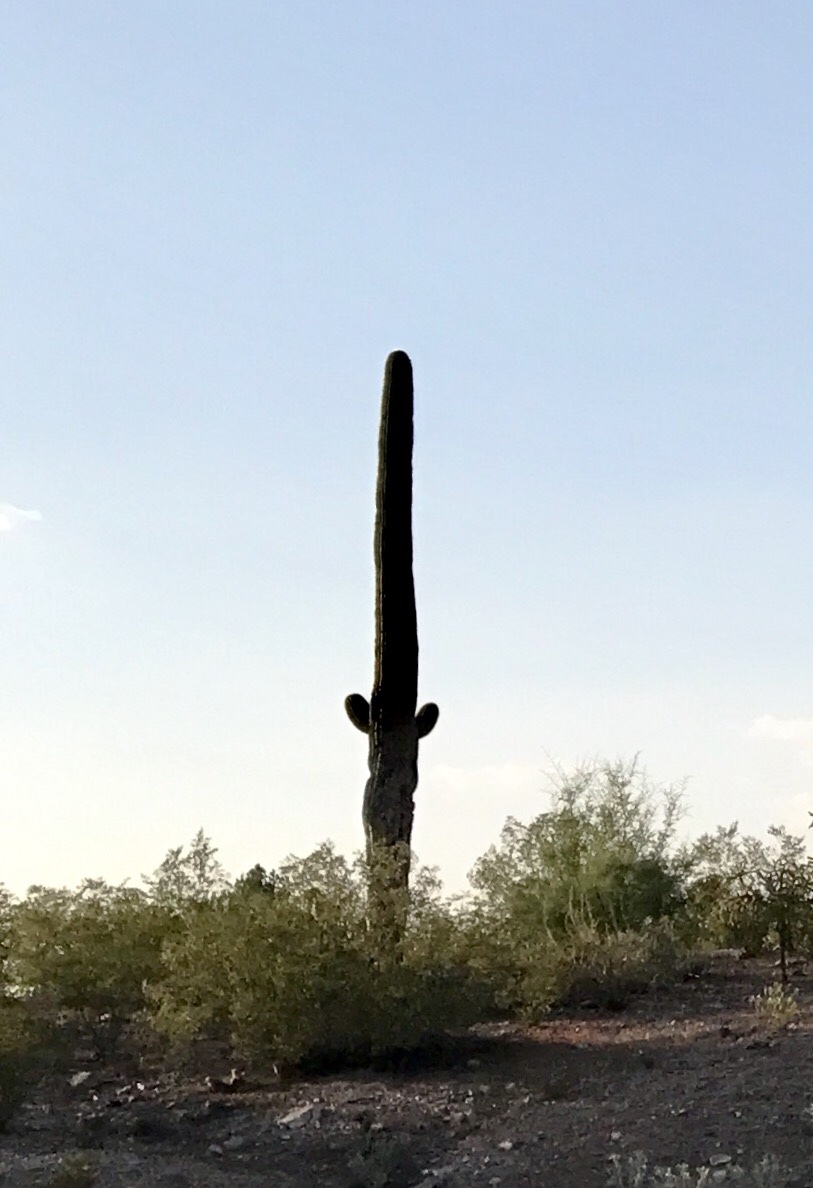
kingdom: Plantae
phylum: Tracheophyta
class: Magnoliopsida
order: Caryophyllales
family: Cactaceae
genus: Carnegiea
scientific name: Carnegiea gigantea
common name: Saguaro
